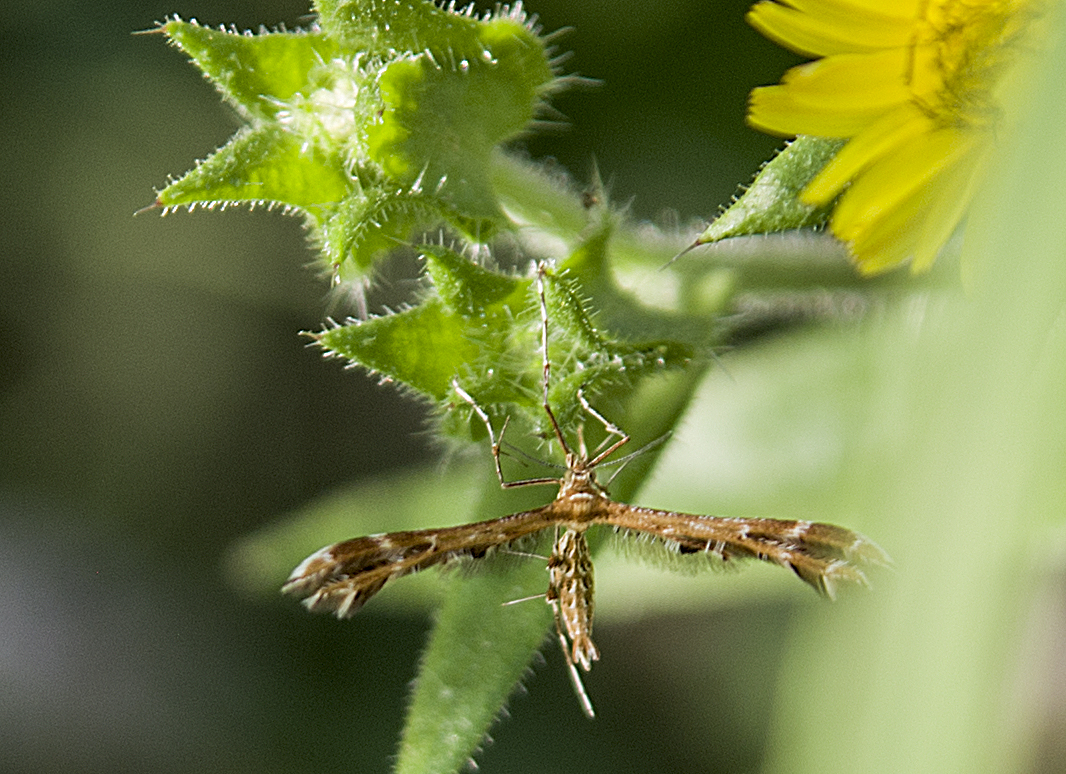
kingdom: Animalia
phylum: Arthropoda
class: Insecta
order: Lepidoptera
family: Pterophoridae
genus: Oxyptilus
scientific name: Oxyptilus pilosellae
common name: Downland plume
